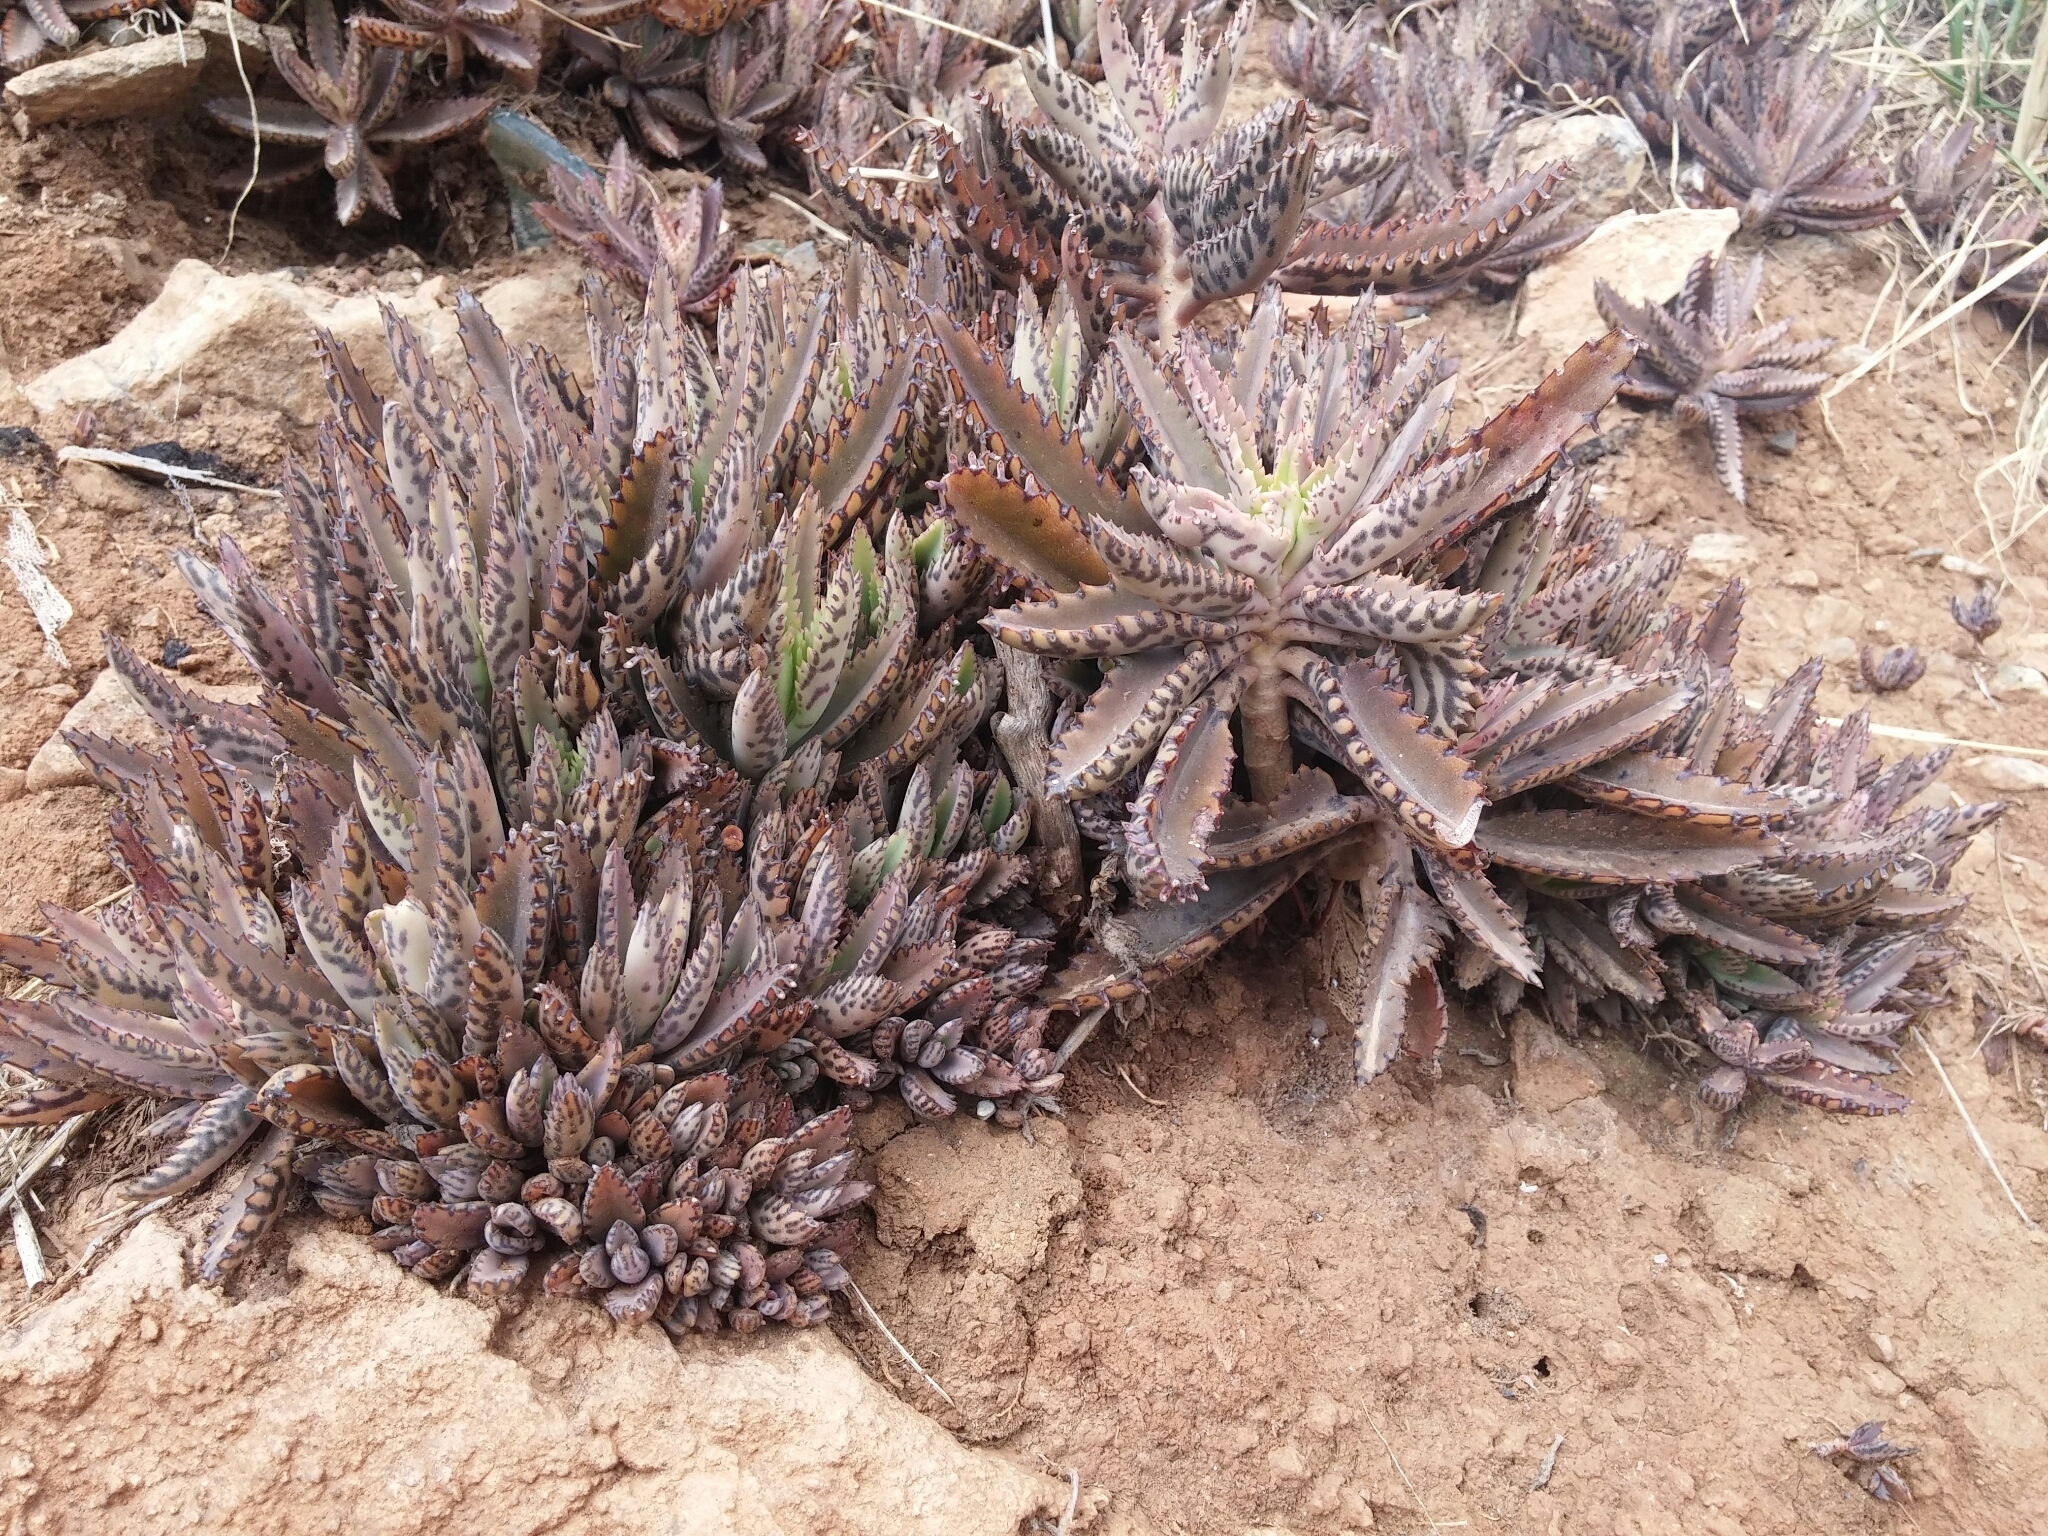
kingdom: Plantae
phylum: Tracheophyta
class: Magnoliopsida
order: Saxifragales
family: Crassulaceae
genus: Kalanchoe
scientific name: Kalanchoe houghtonii
